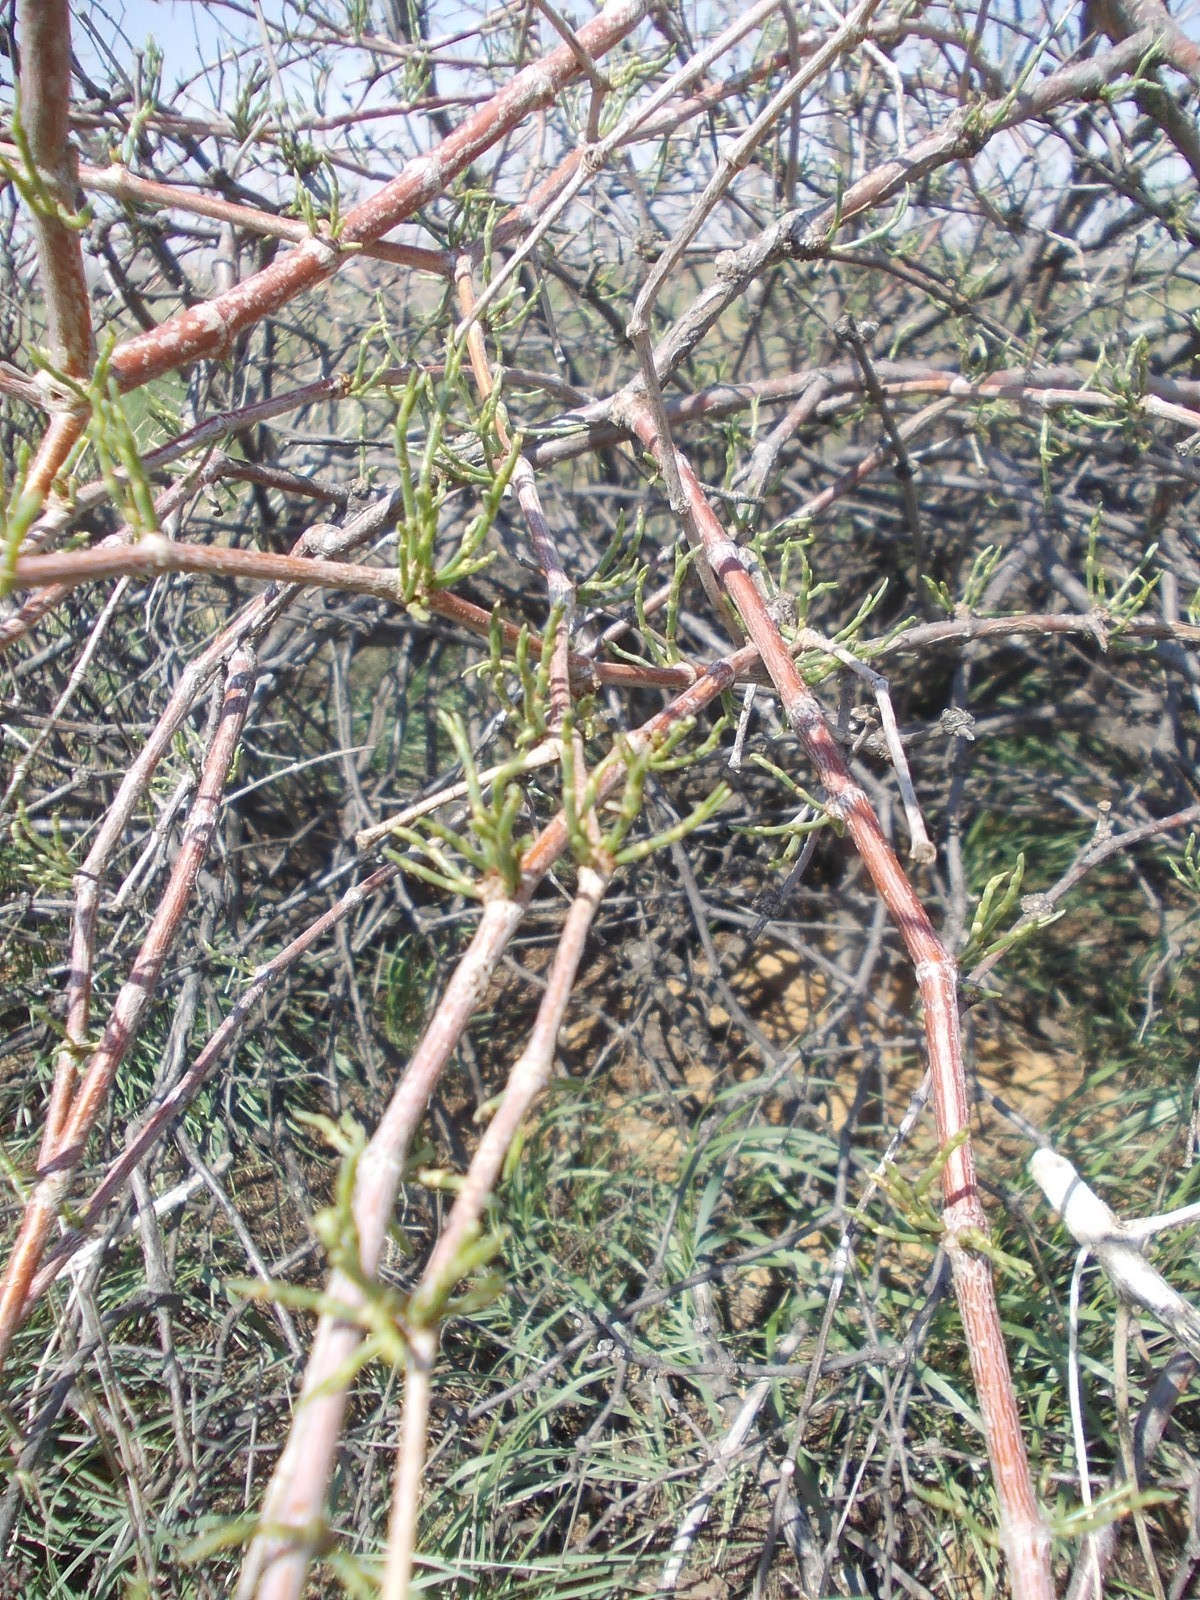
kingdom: Plantae
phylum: Tracheophyta
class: Magnoliopsida
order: Caryophyllales
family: Polygonaceae
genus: Calligonum
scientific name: Calligonum aphyllum
